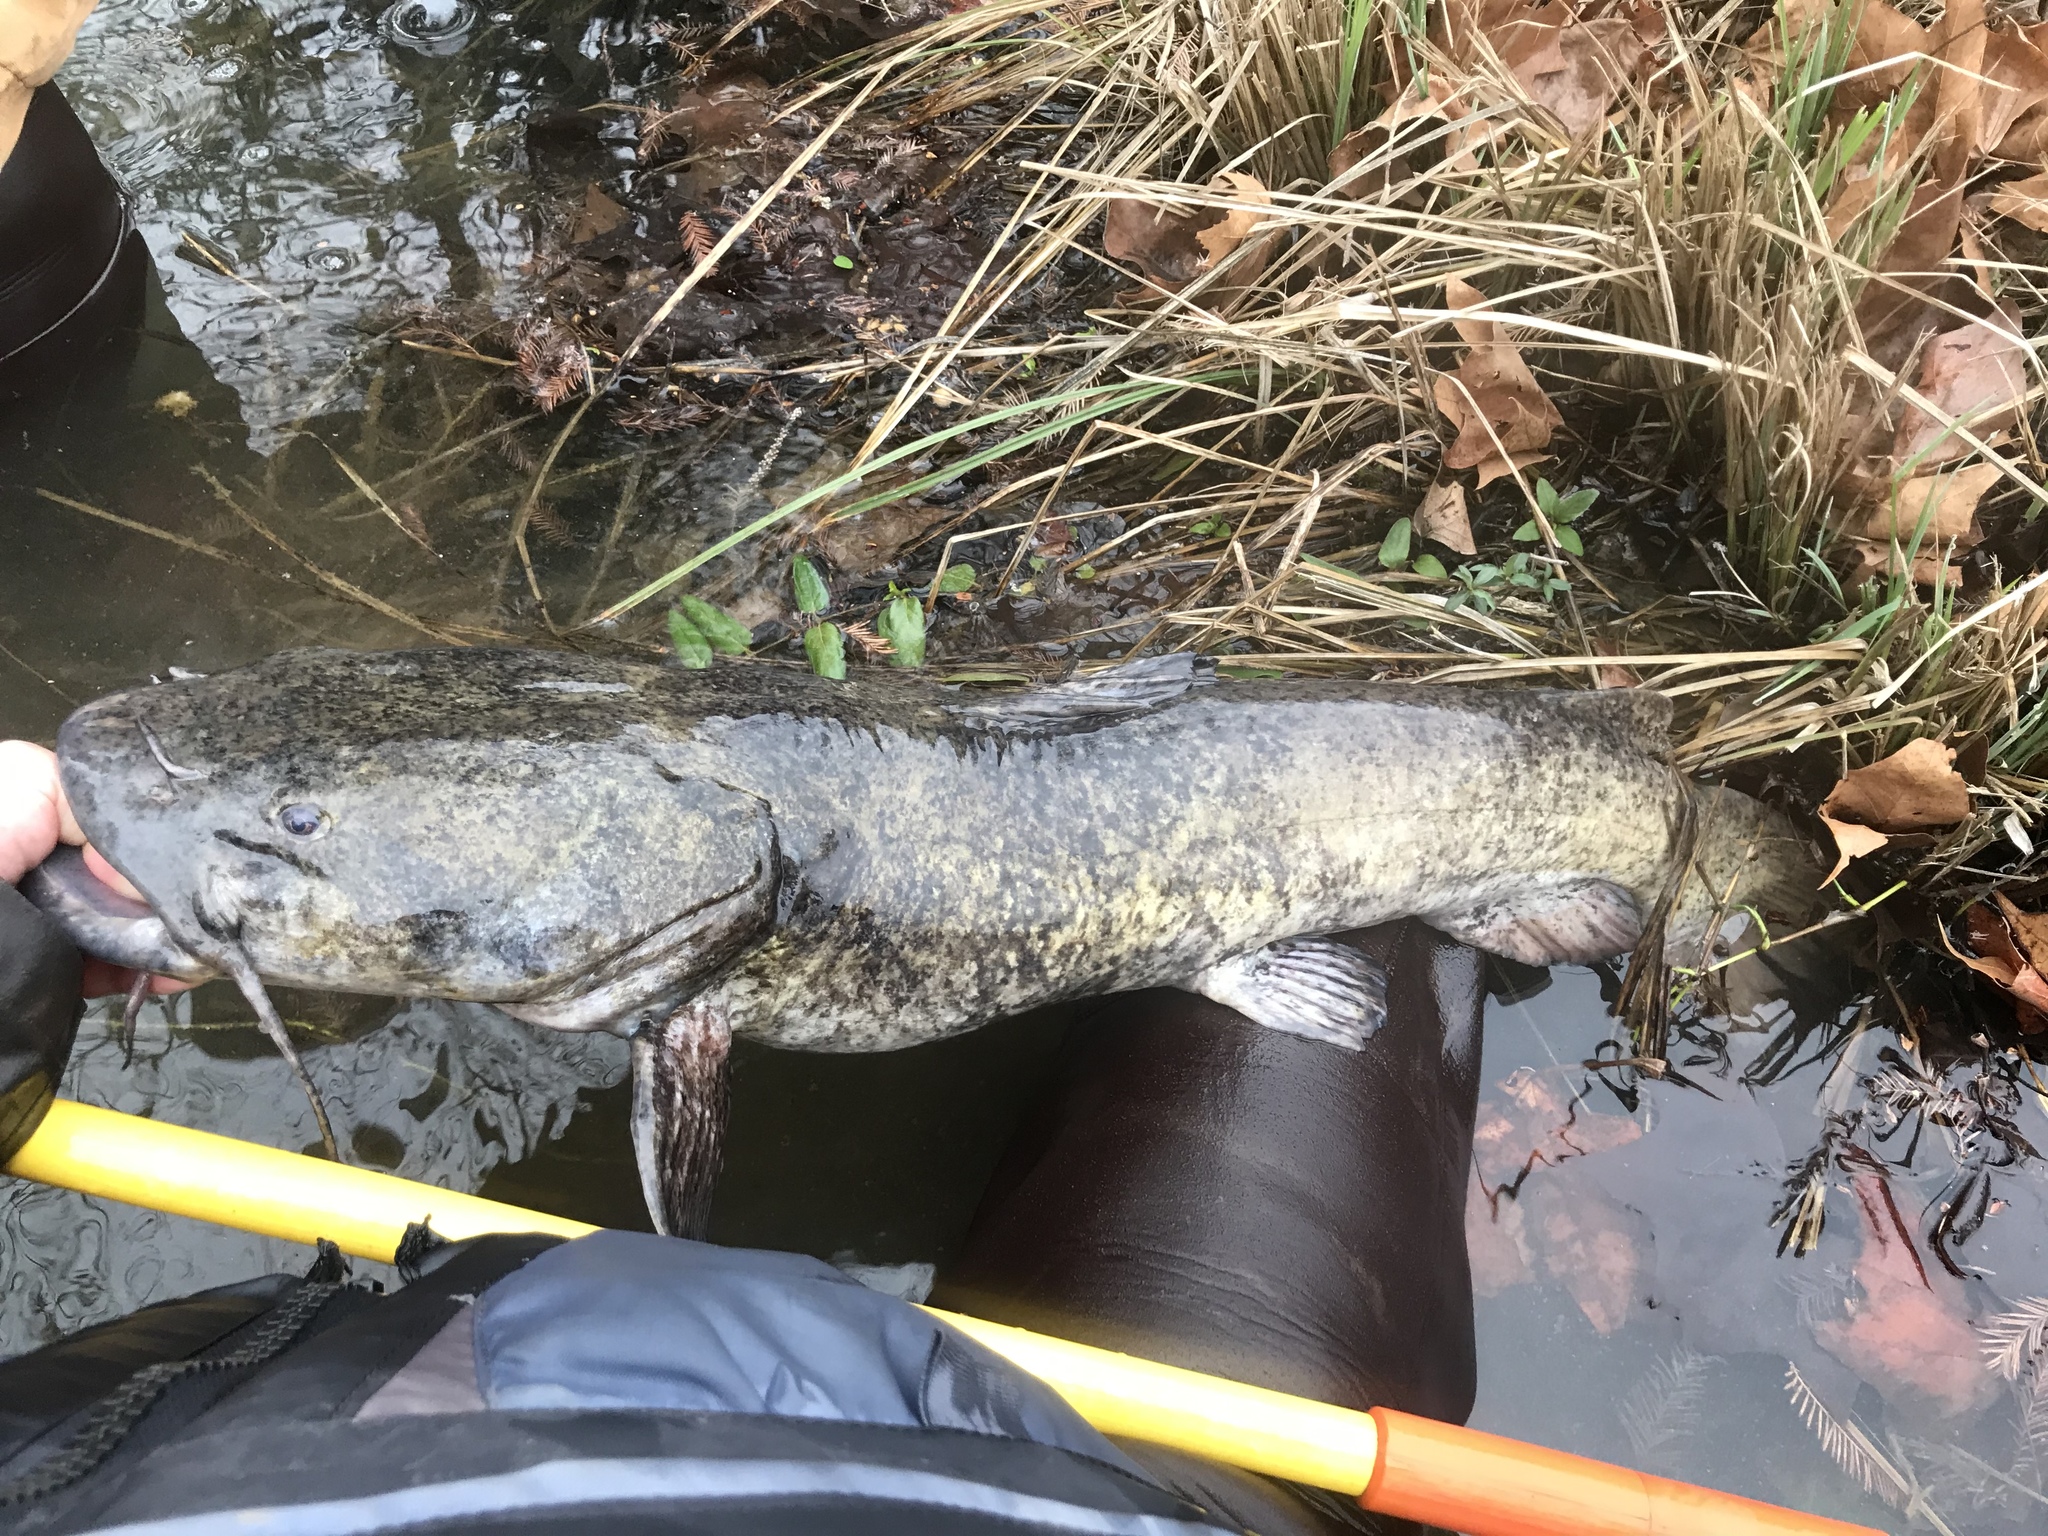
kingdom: Animalia
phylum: Chordata
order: Siluriformes
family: Ictaluridae
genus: Pylodictis
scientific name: Pylodictis olivaris
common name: Flathead catfish
